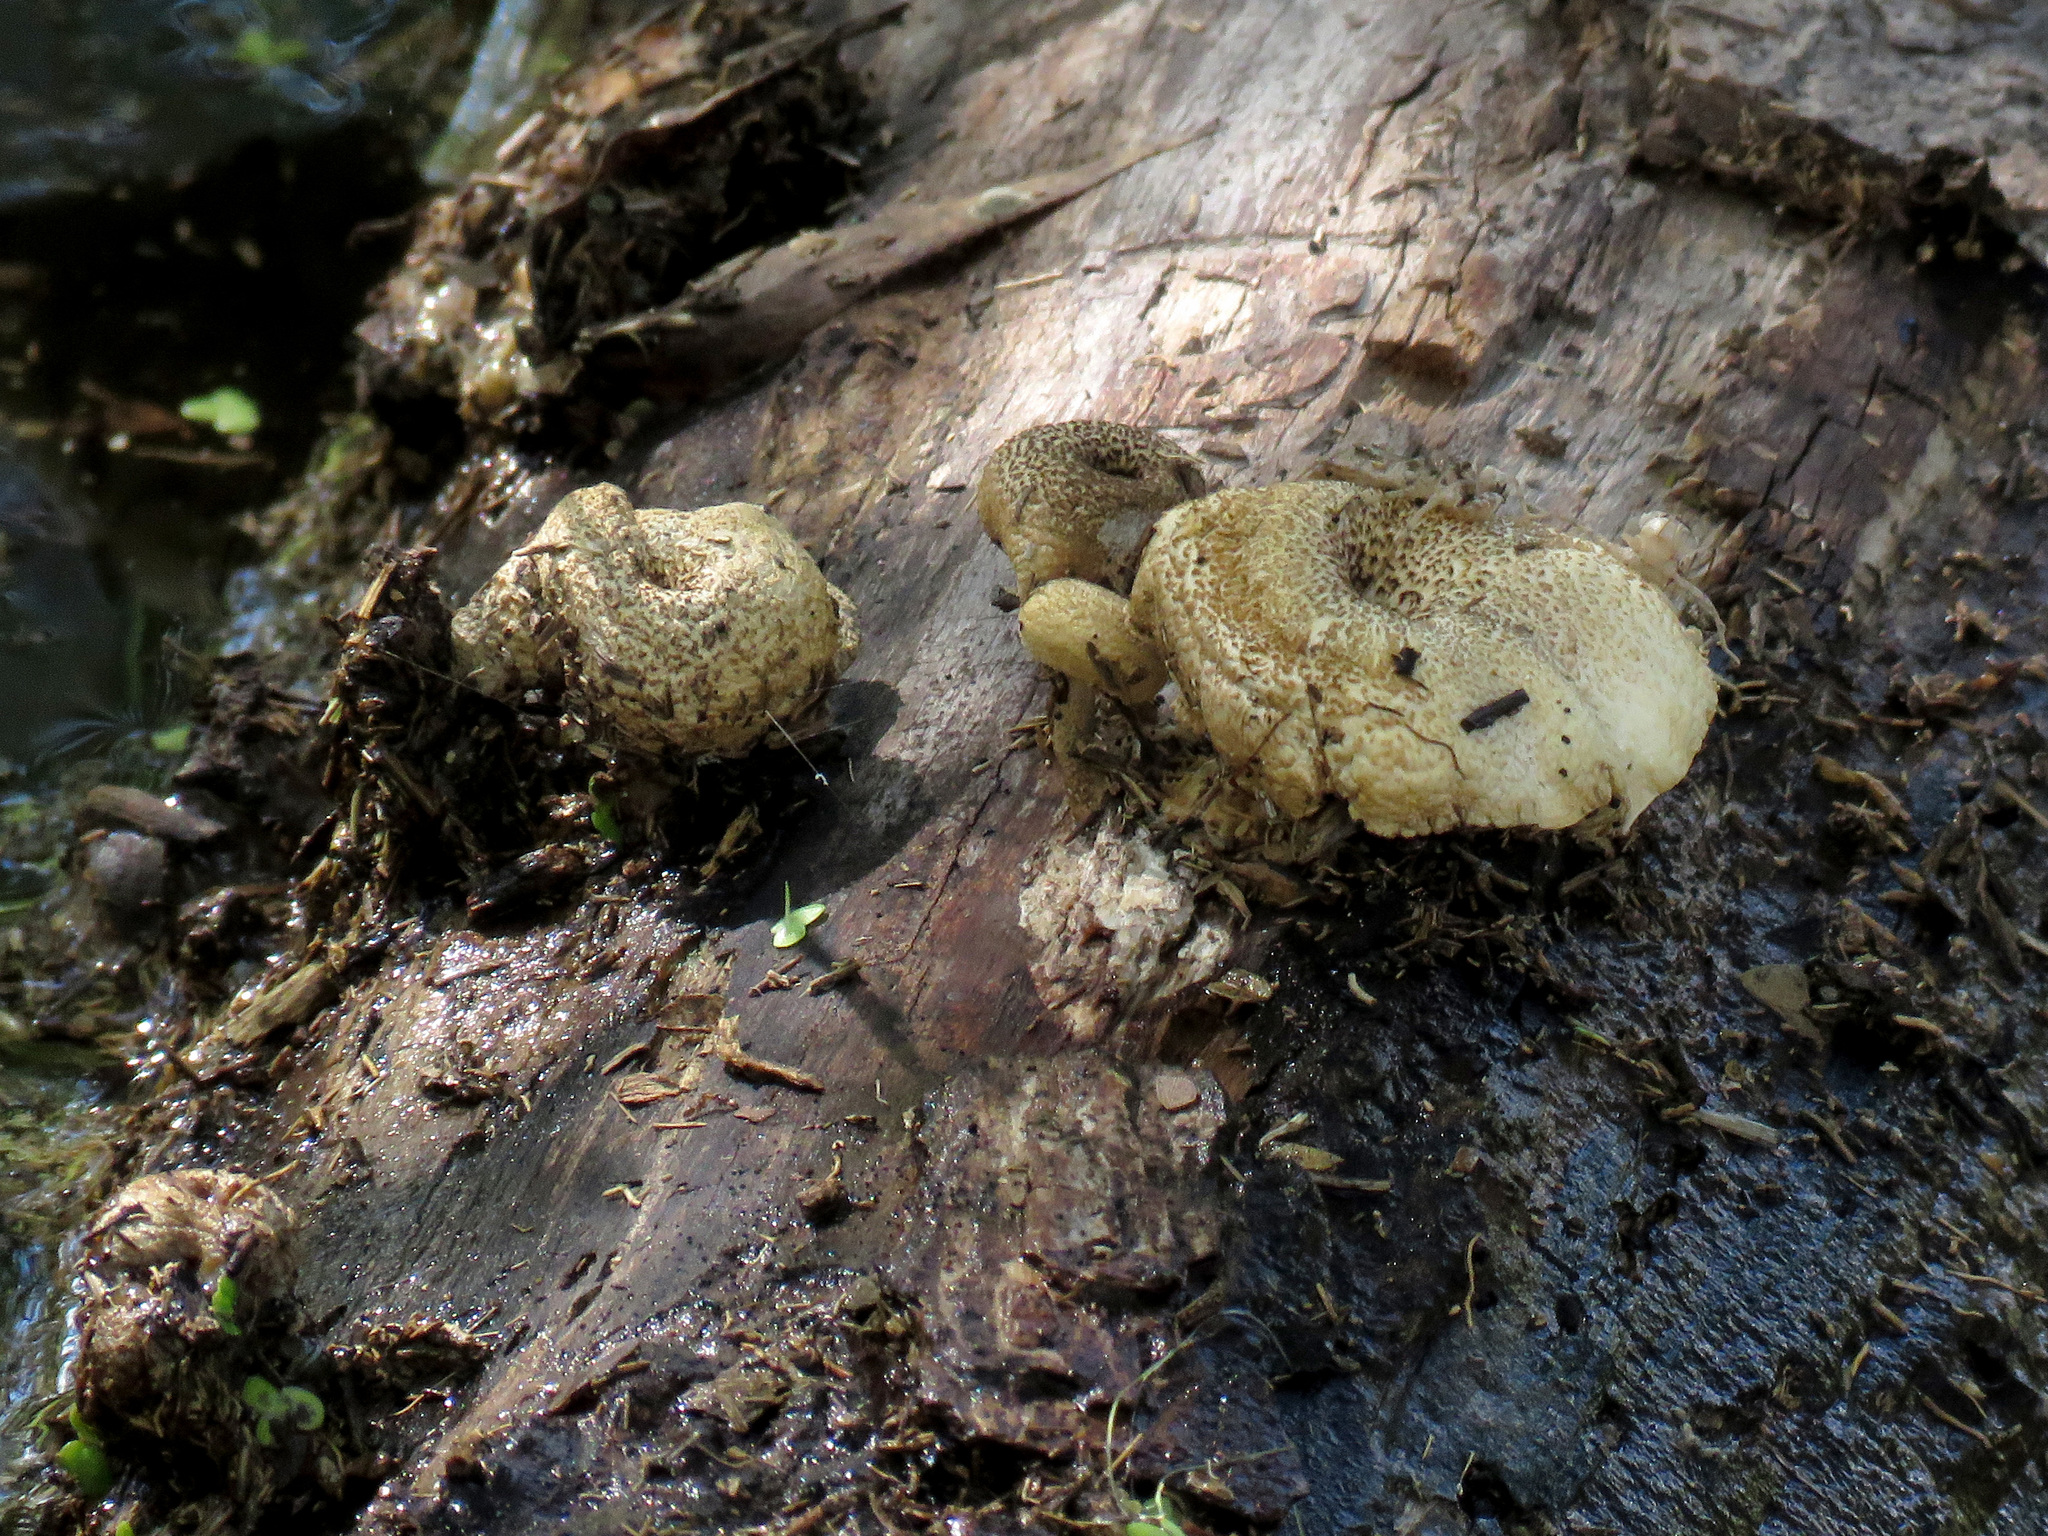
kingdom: Fungi
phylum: Basidiomycota
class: Agaricomycetes
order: Polyporales
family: Polyporaceae
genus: Lentinus
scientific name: Lentinus tigrinus
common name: Tiger sawgill
